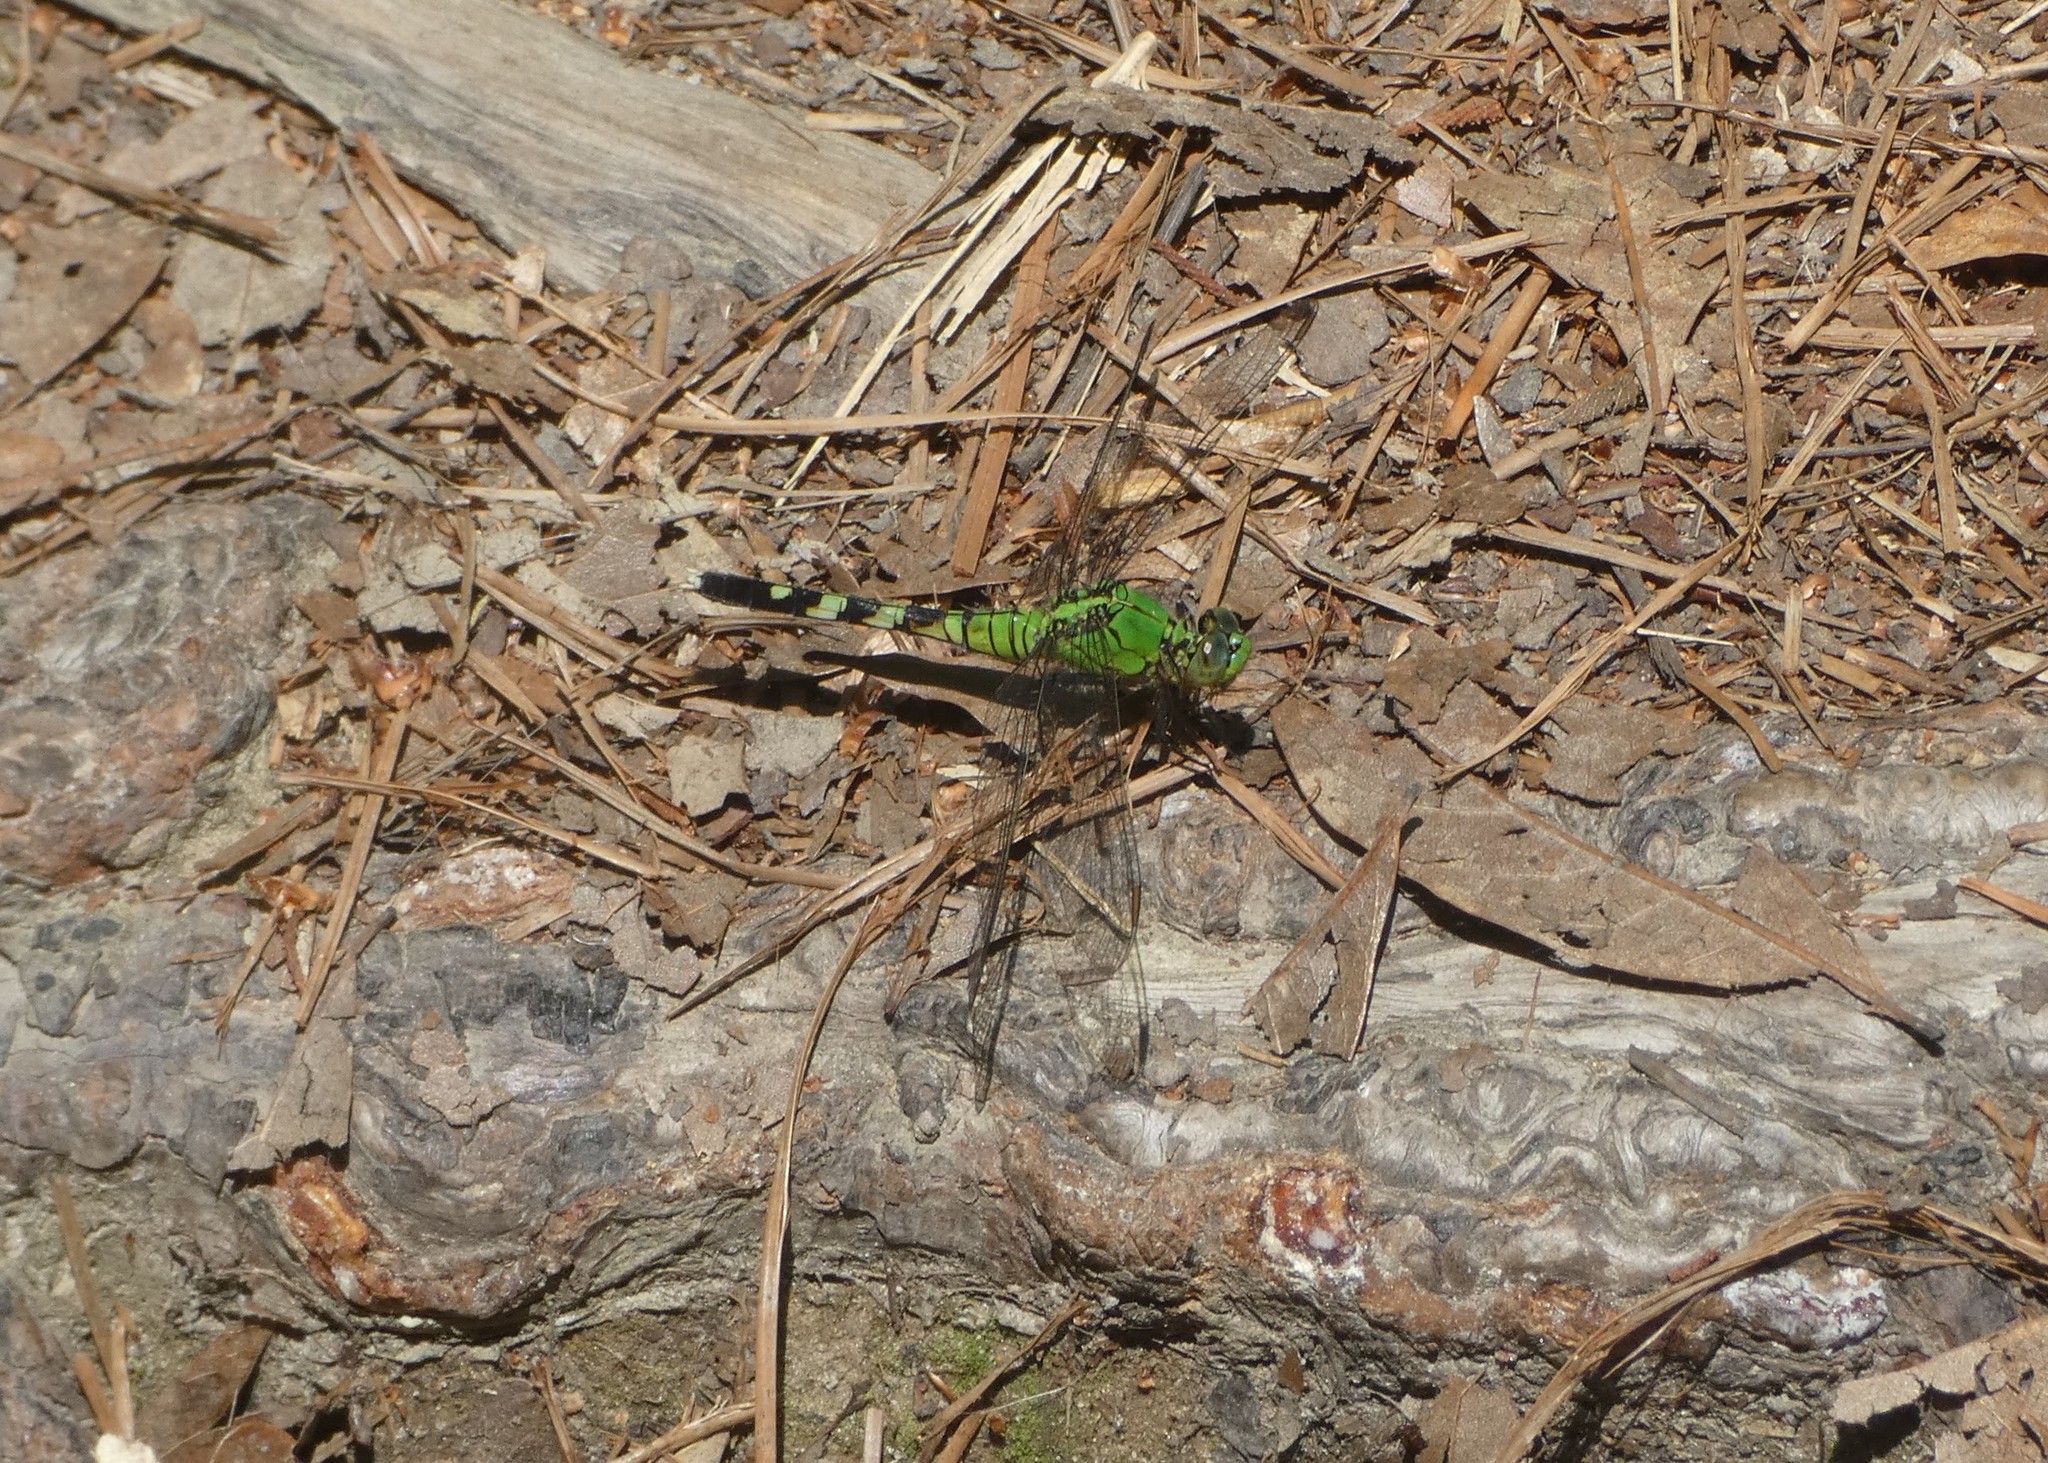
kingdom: Animalia
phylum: Arthropoda
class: Insecta
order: Odonata
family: Libellulidae
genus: Erythemis
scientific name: Erythemis simplicicollis
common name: Eastern pondhawk
